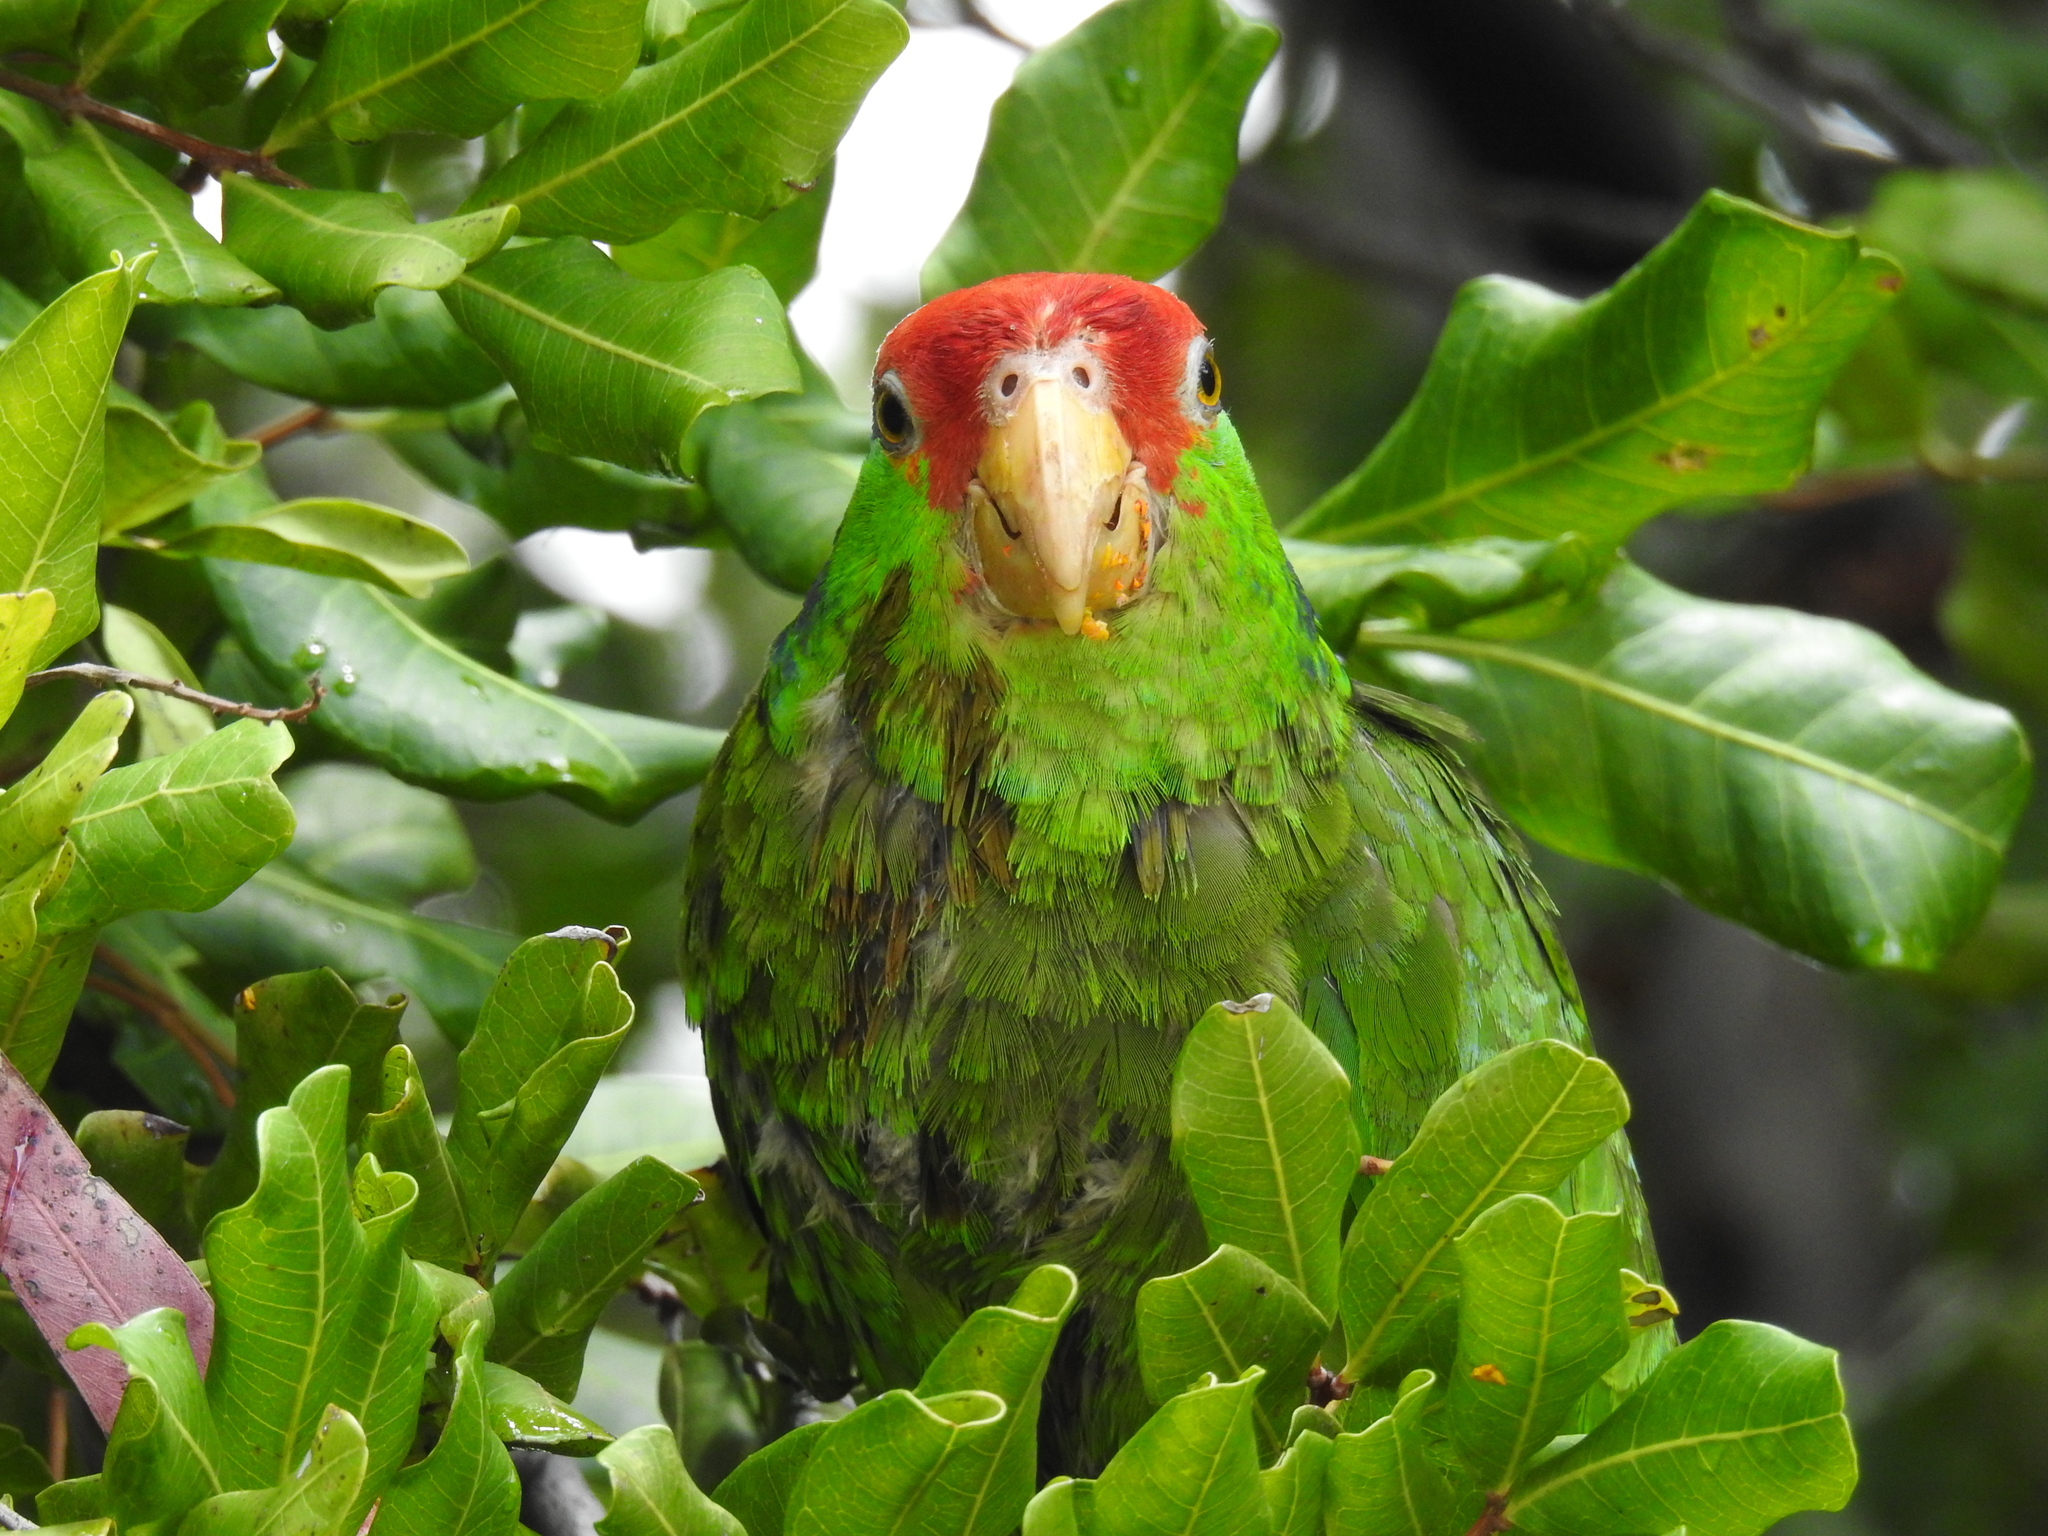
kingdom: Animalia
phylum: Chordata
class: Aves
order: Psittaciformes
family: Psittacidae
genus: Amazona
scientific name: Amazona viridigenalis
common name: Red-crowned amazon
